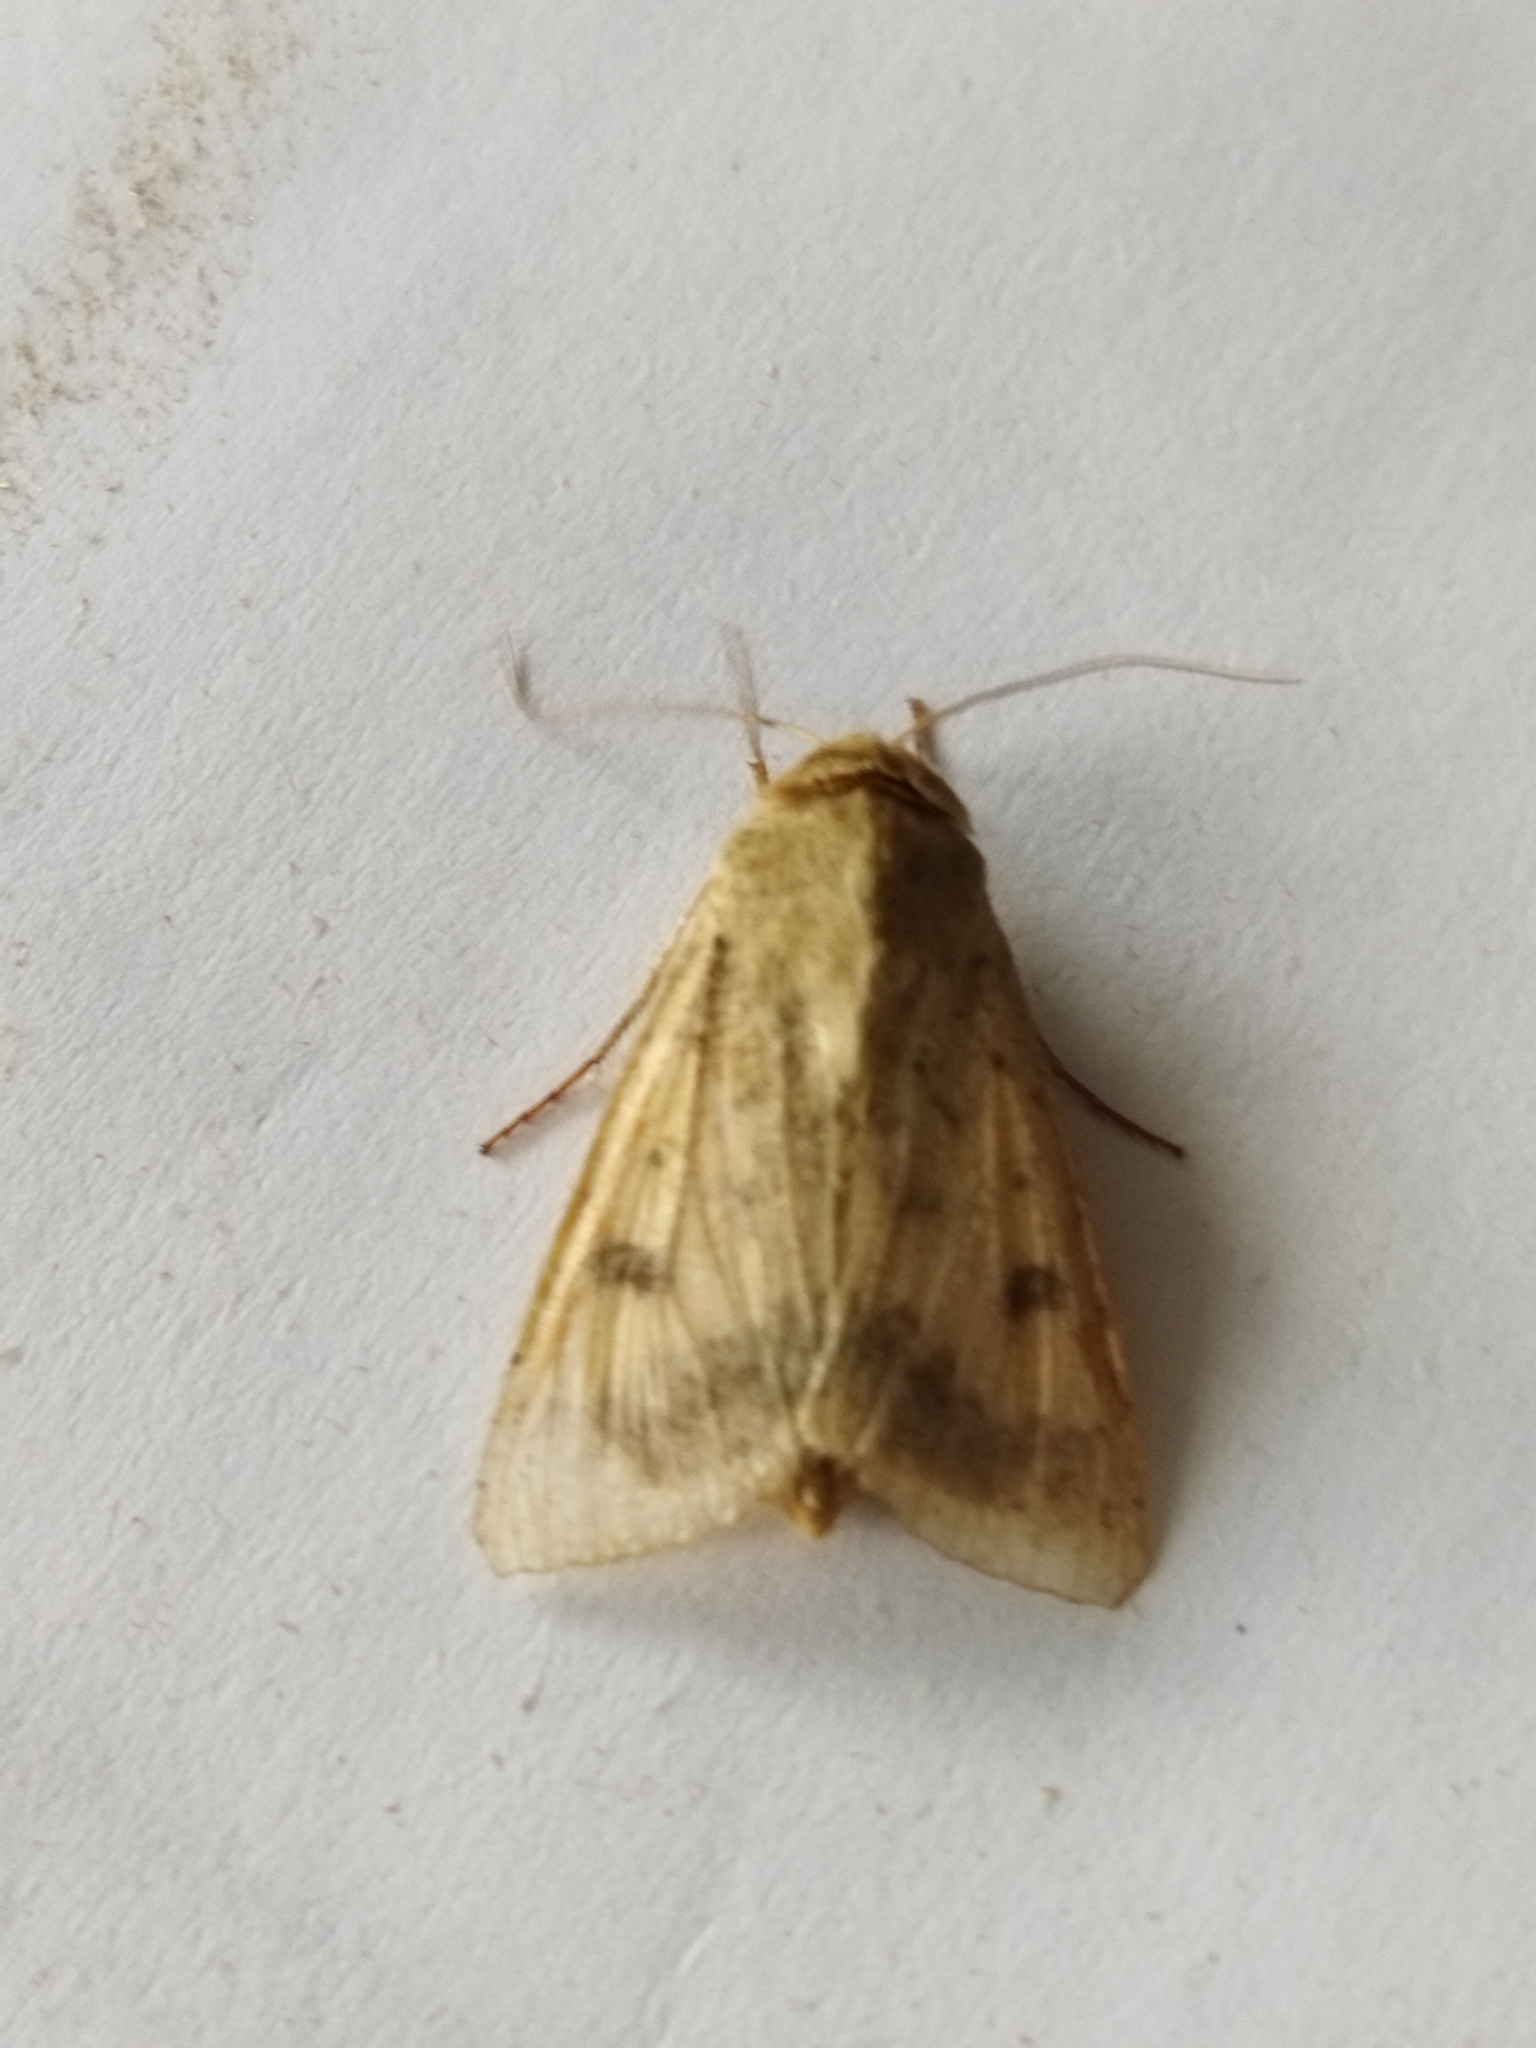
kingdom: Animalia
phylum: Arthropoda
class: Insecta
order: Lepidoptera
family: Noctuidae
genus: Helicoverpa
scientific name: Helicoverpa armigera
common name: Cotton bollworm
